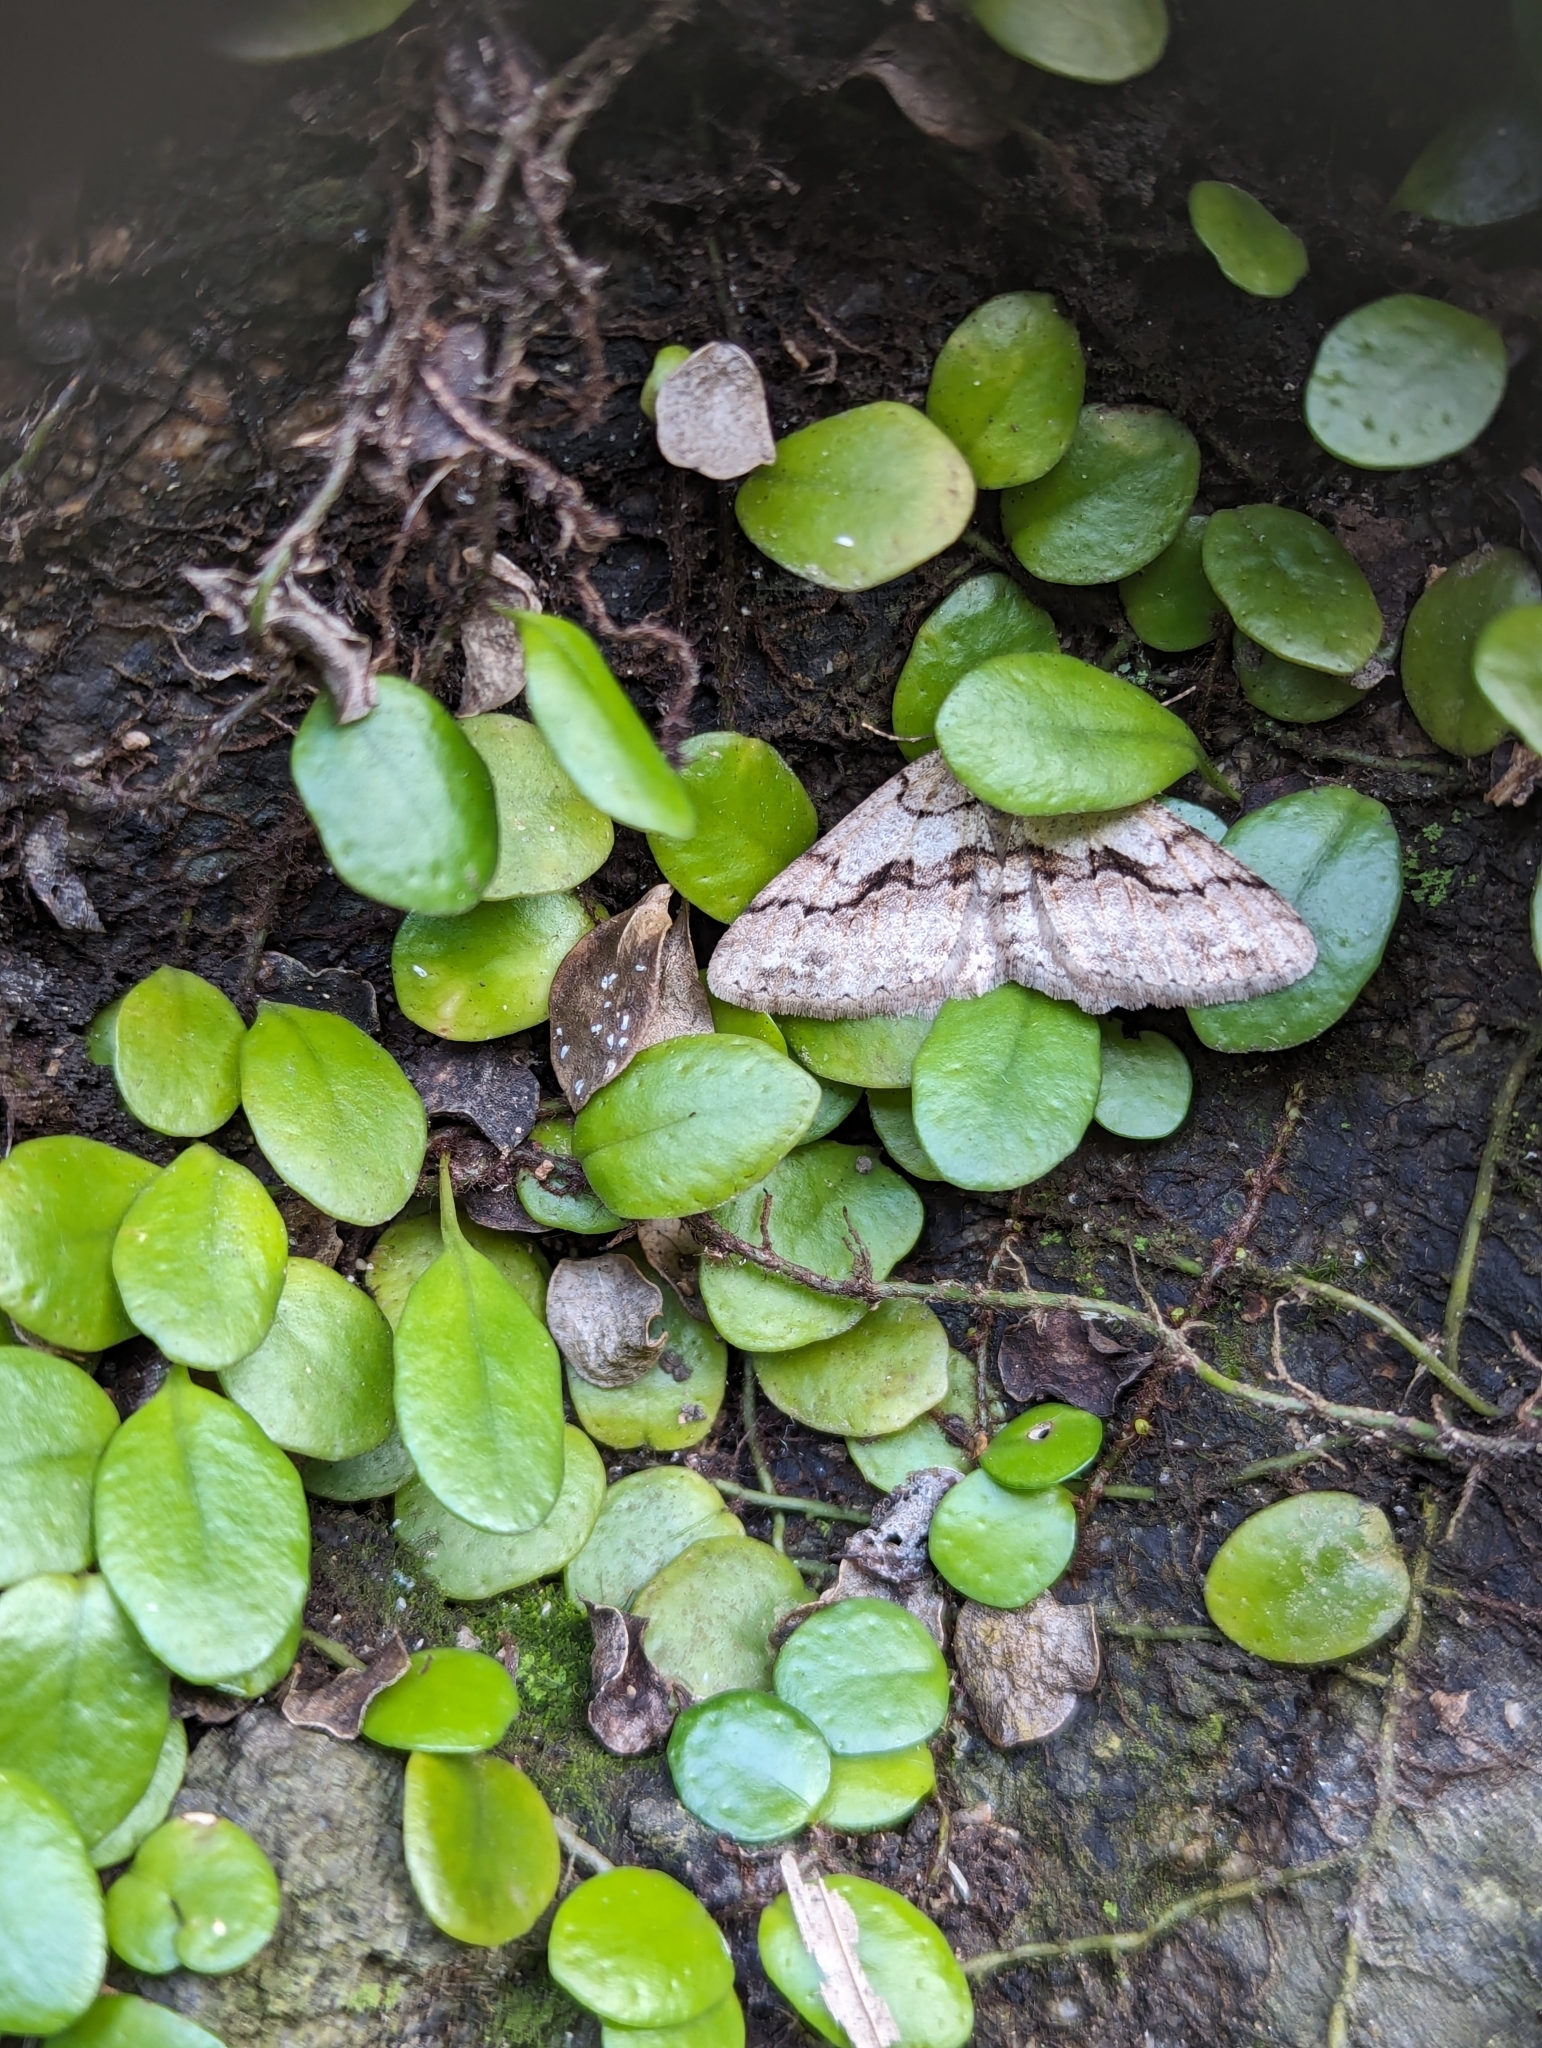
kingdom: Plantae
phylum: Tracheophyta
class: Polypodiopsida
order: Polypodiales
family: Polypodiaceae
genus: Lepisorus
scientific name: Lepisorus microphyllus
